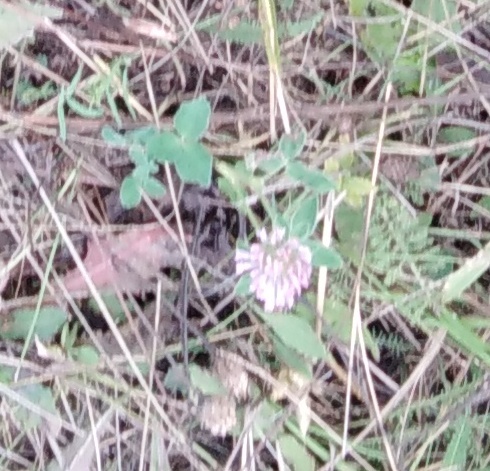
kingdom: Plantae
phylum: Tracheophyta
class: Magnoliopsida
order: Fabales
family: Fabaceae
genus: Trifolium
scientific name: Trifolium pratense
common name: Red clover
